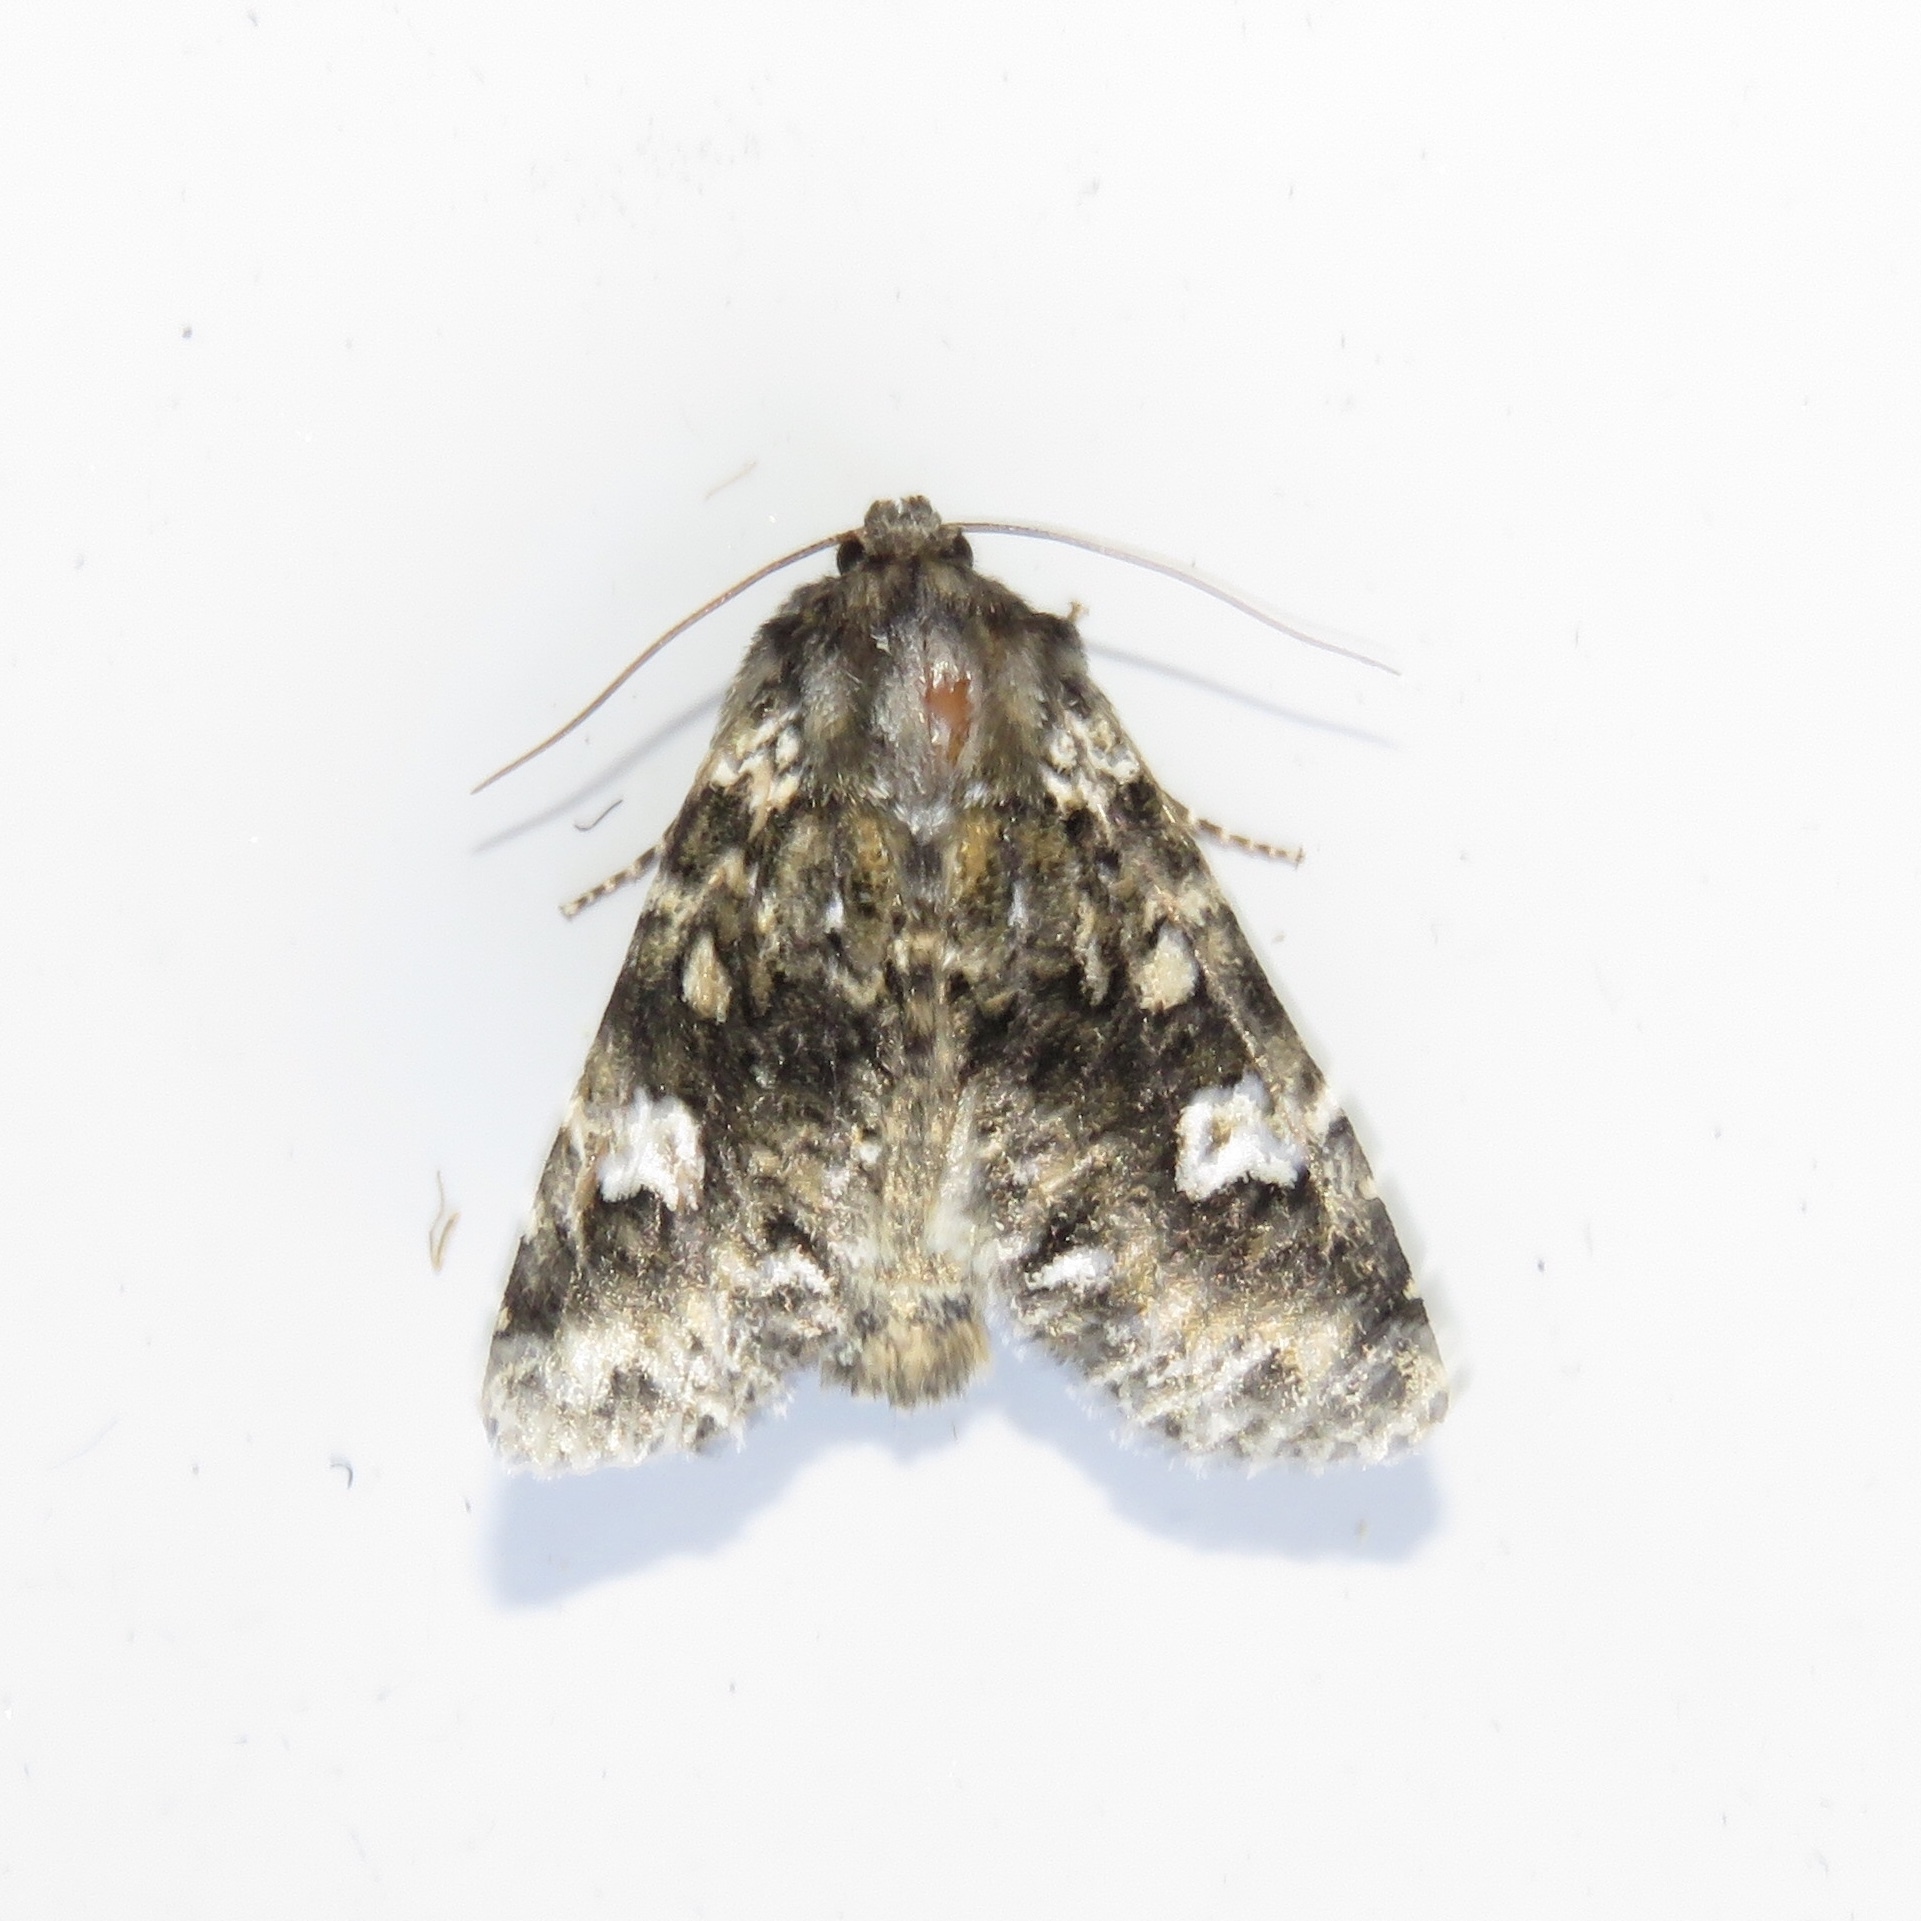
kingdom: Animalia
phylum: Arthropoda
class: Insecta
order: Lepidoptera
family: Noctuidae
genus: Melanchra
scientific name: Melanchra adjuncta
